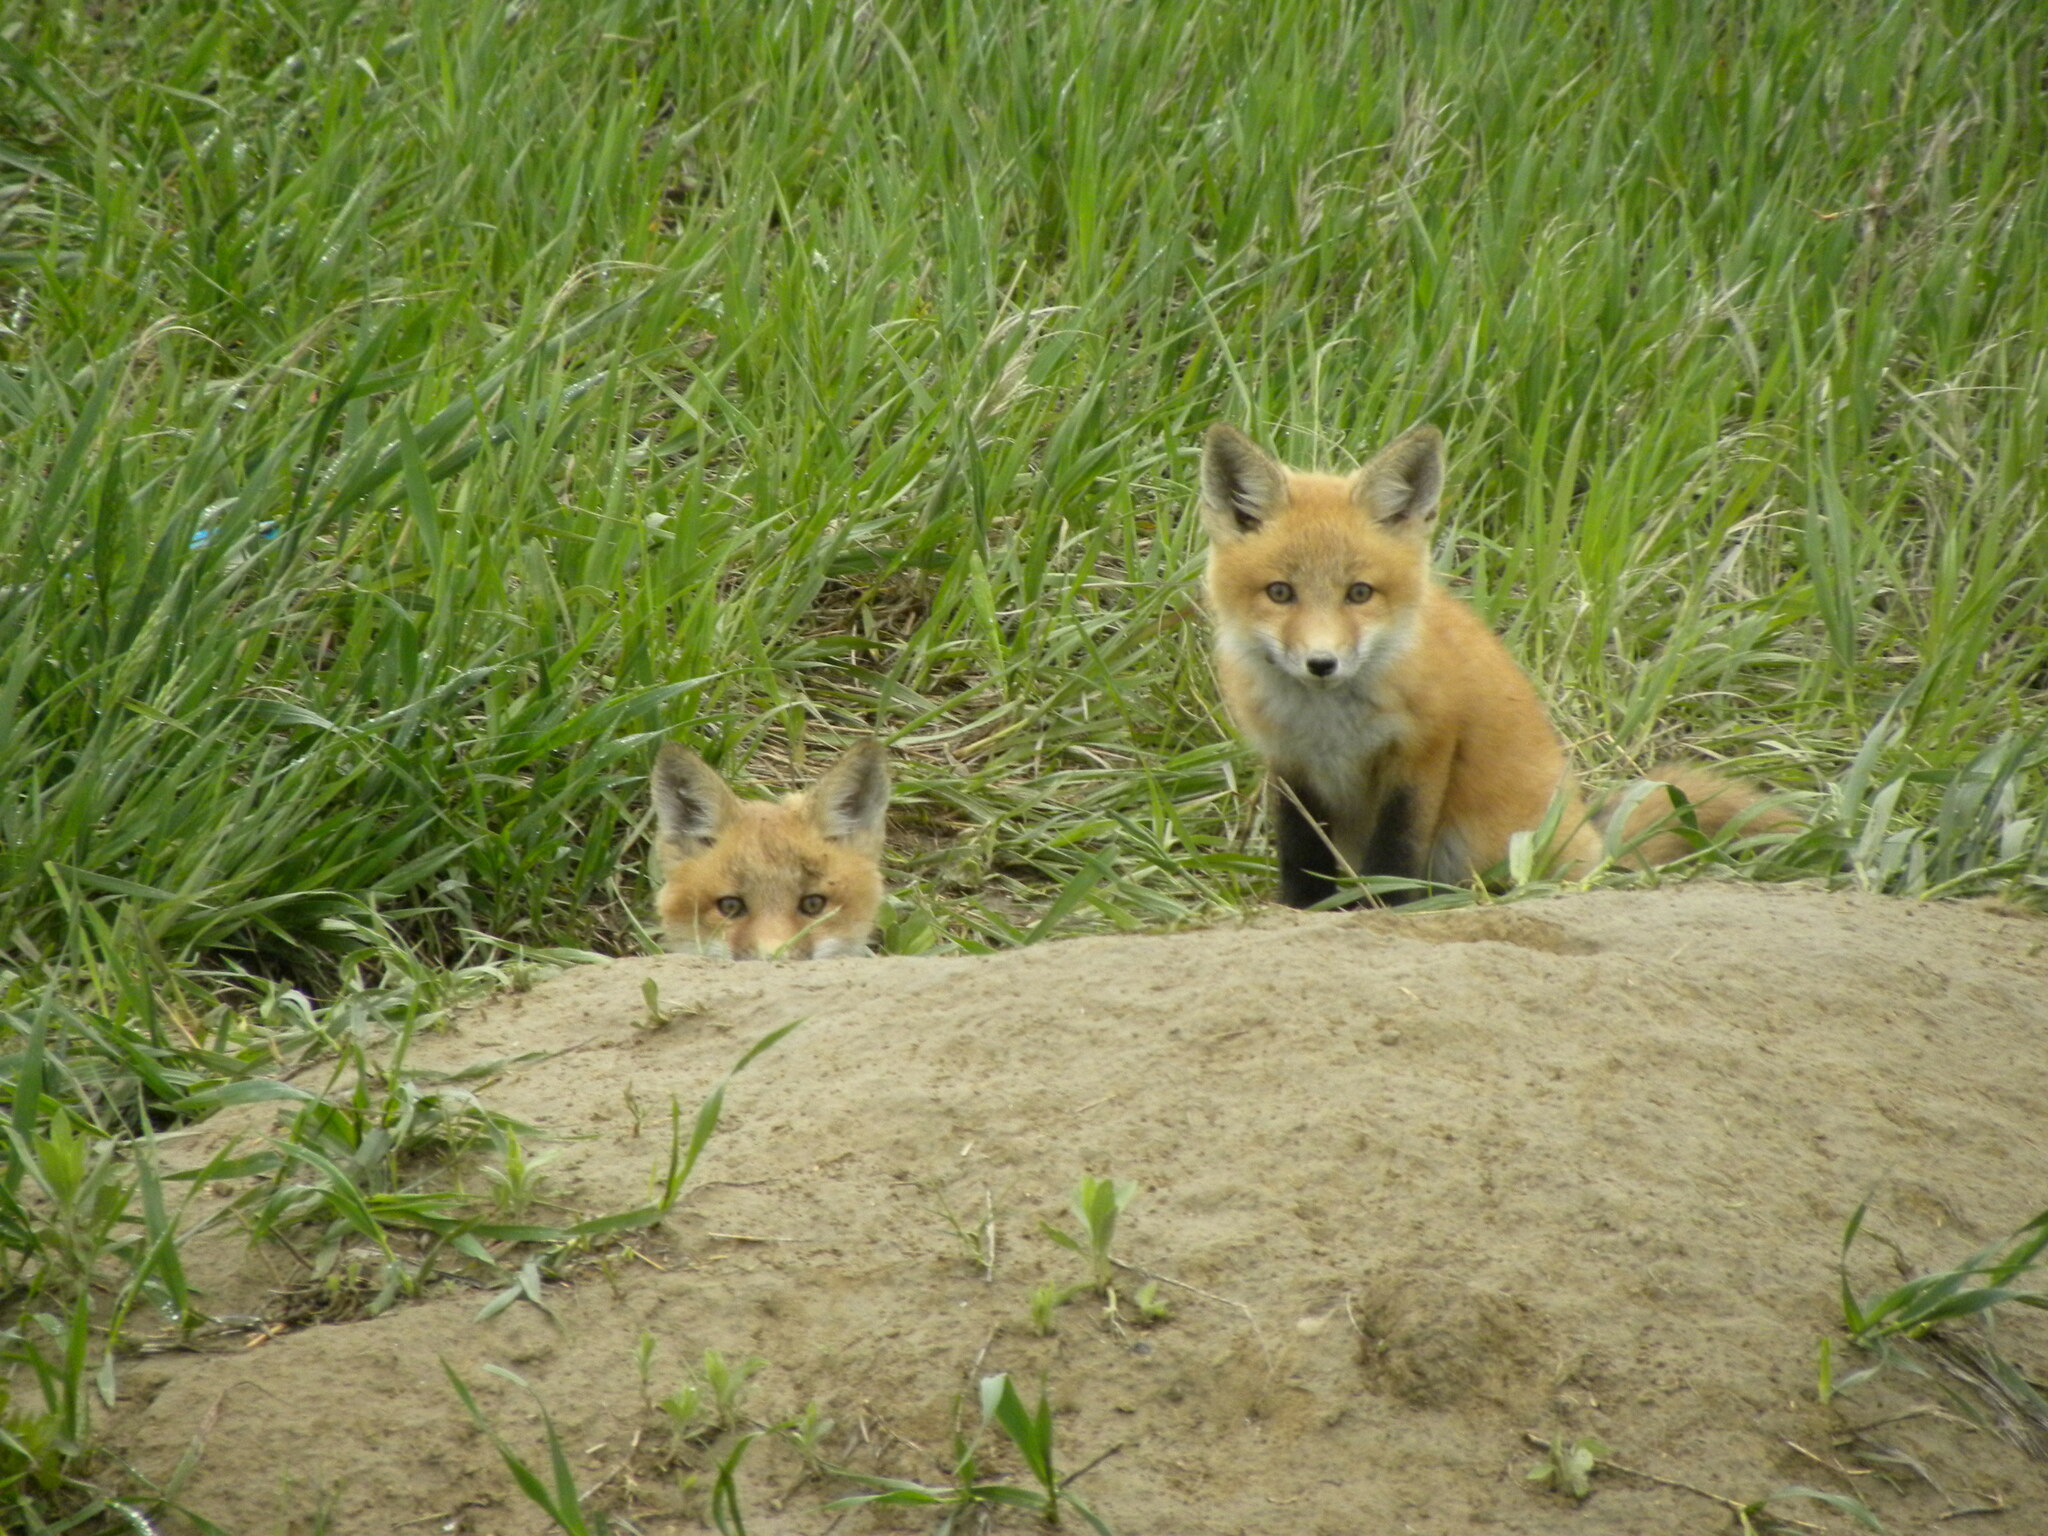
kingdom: Animalia
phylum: Chordata
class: Mammalia
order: Carnivora
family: Canidae
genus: Vulpes
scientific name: Vulpes vulpes
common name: Red fox
